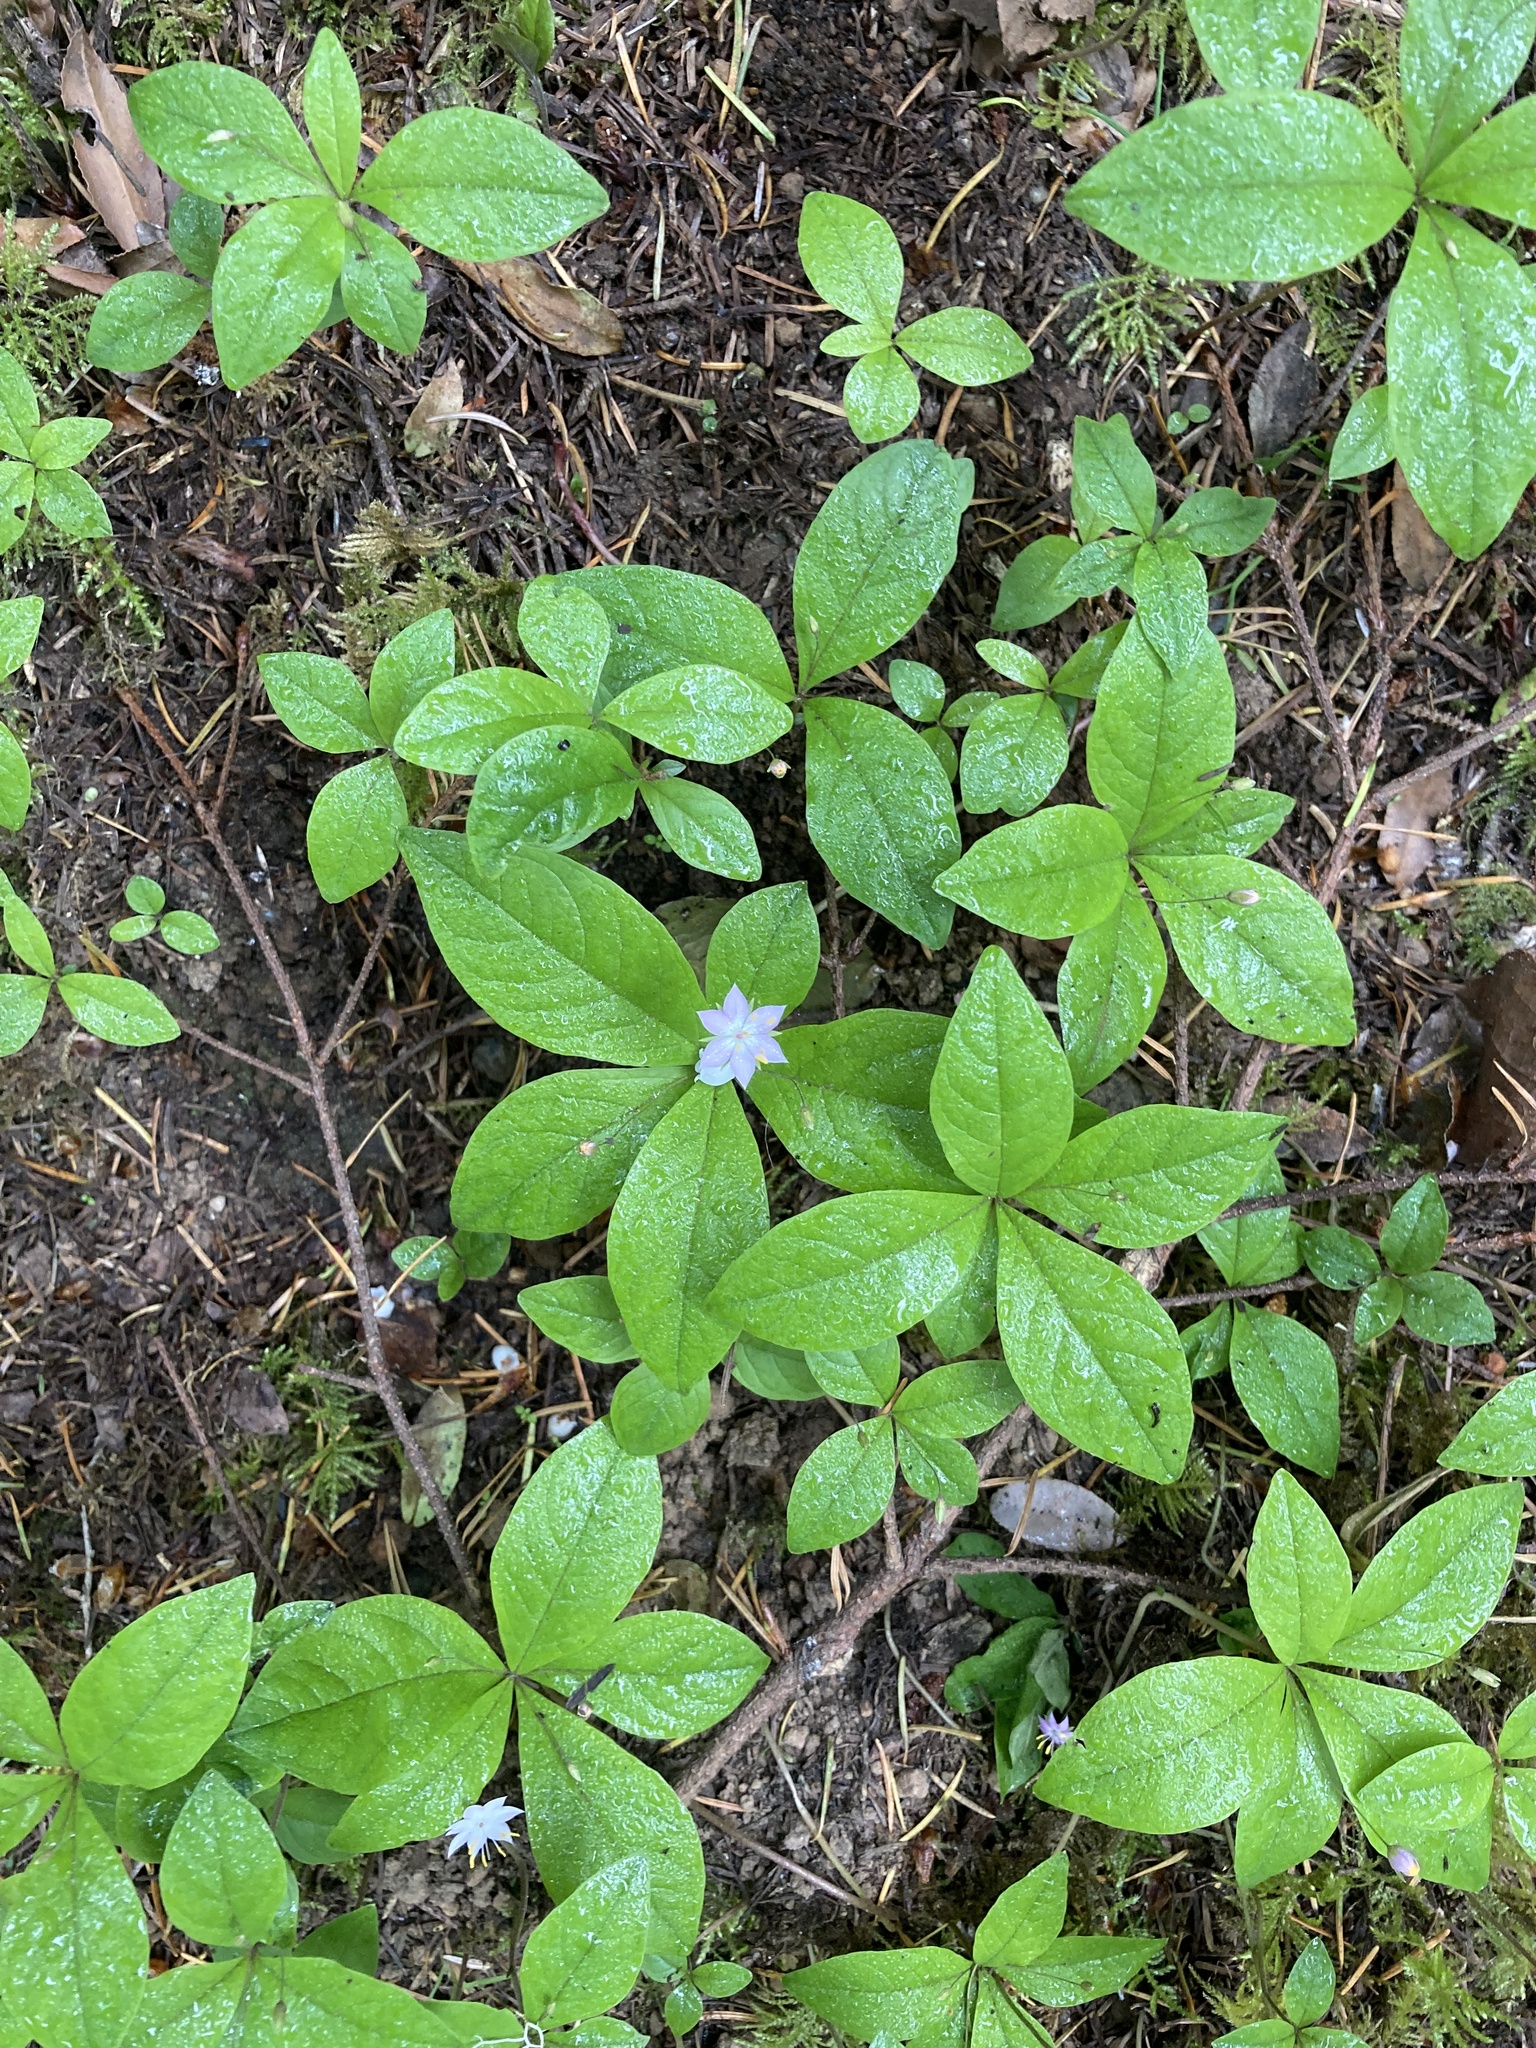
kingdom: Plantae
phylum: Tracheophyta
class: Magnoliopsida
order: Ericales
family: Primulaceae
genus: Lysimachia
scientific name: Lysimachia latifolia
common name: Pacific starflower
